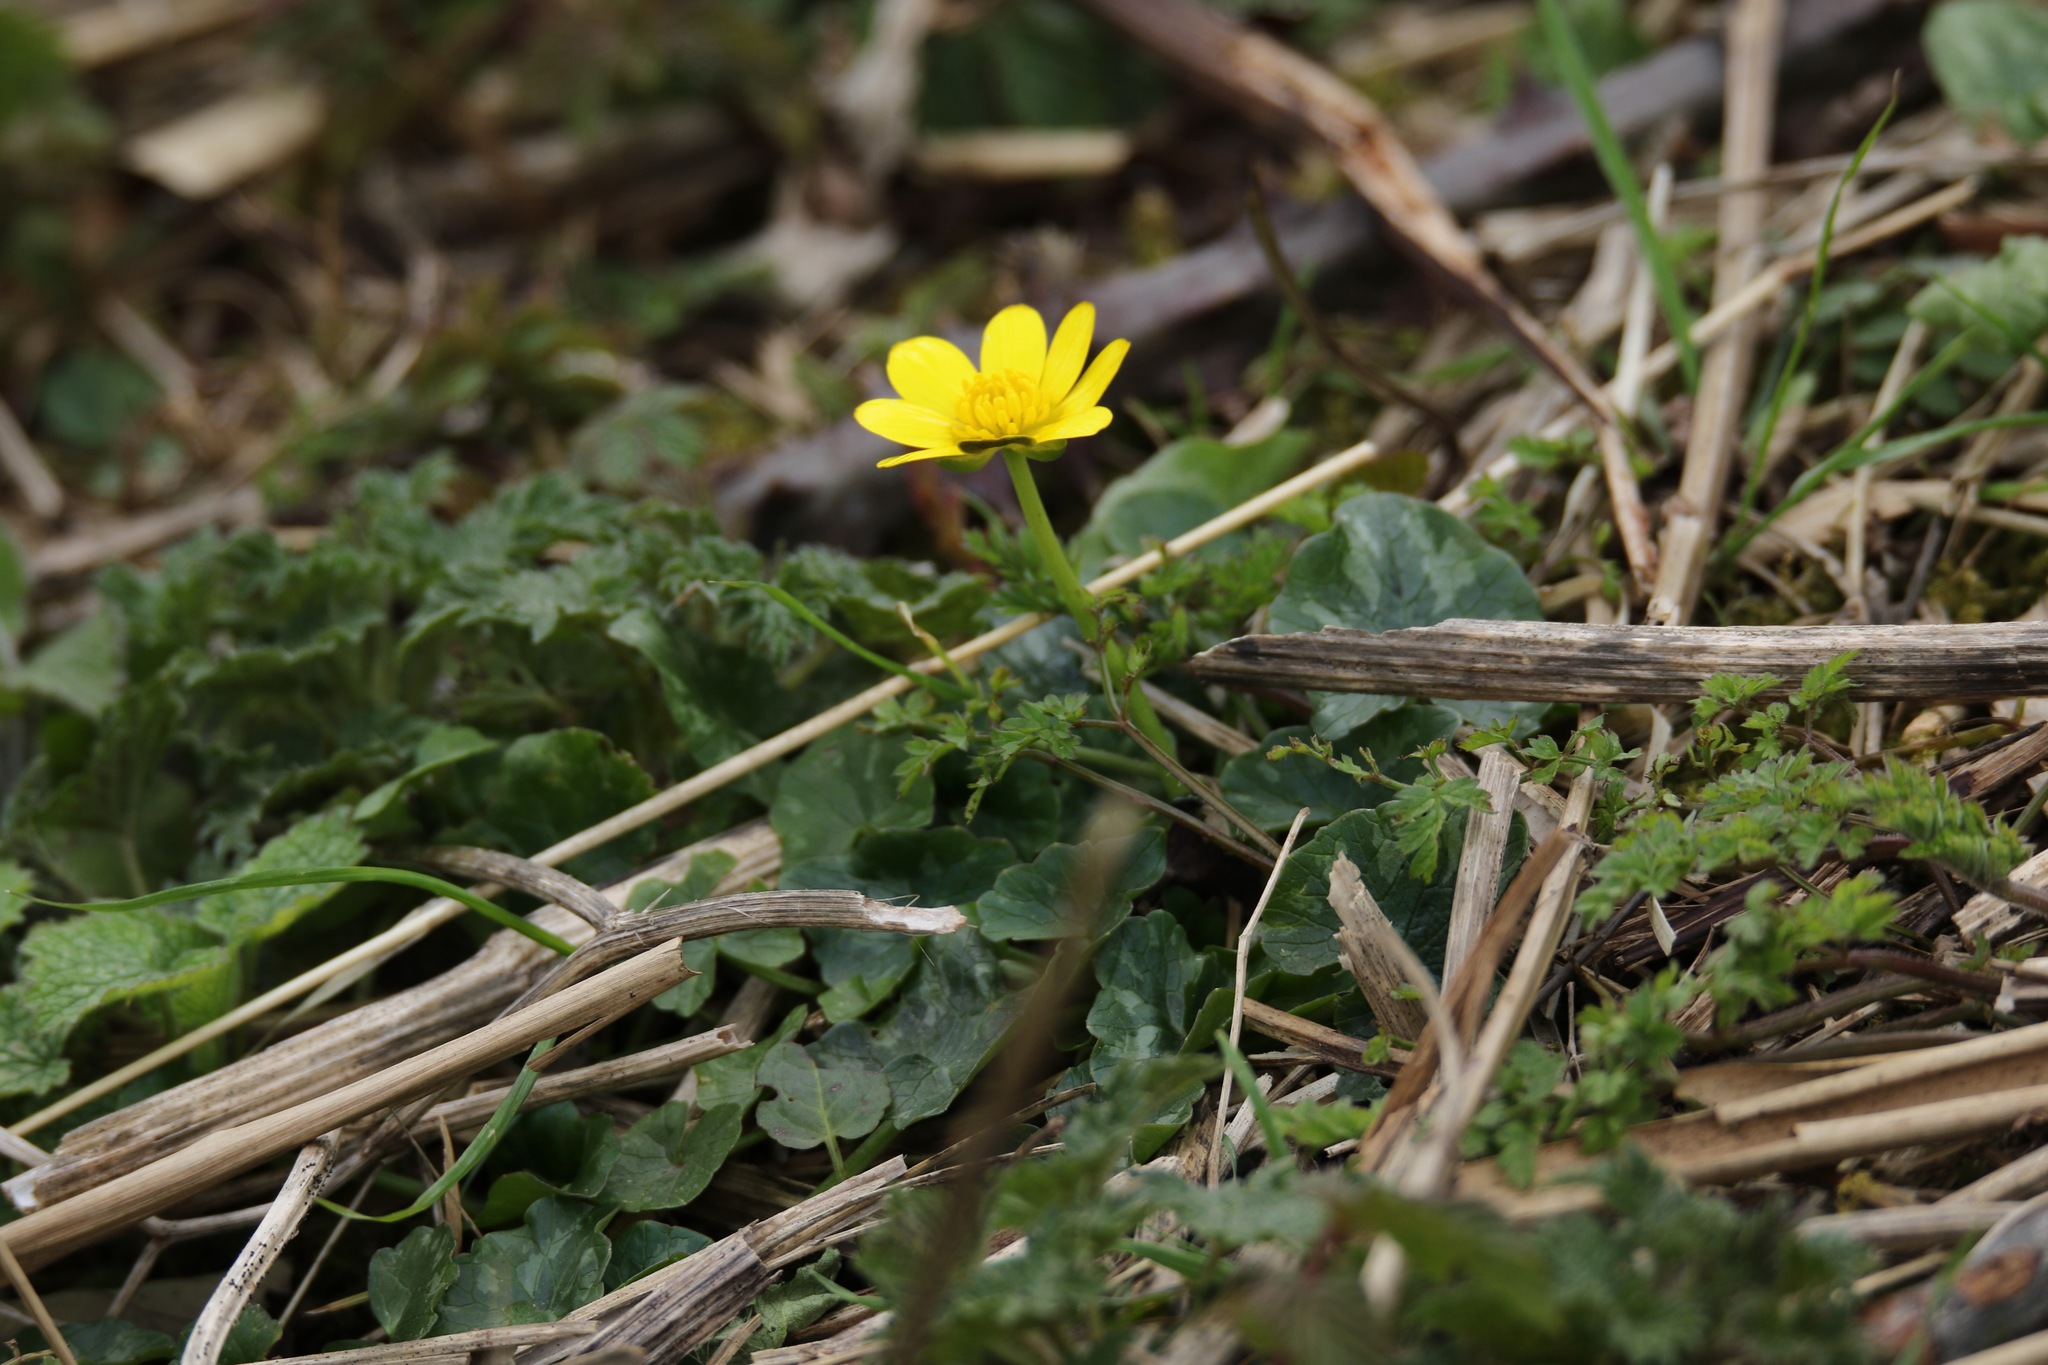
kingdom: Plantae
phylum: Tracheophyta
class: Magnoliopsida
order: Ranunculales
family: Ranunculaceae
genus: Ficaria
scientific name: Ficaria verna
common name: Lesser celandine
